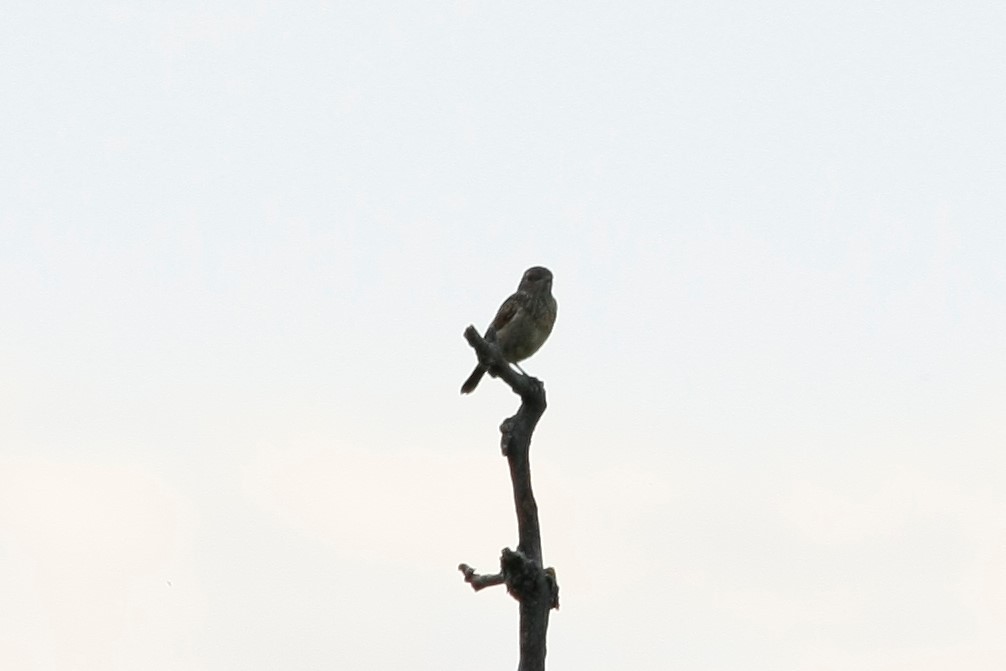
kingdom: Animalia
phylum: Chordata
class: Aves
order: Passeriformes
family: Muscicapidae
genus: Saxicola
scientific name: Saxicola rubicola
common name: European stonechat
